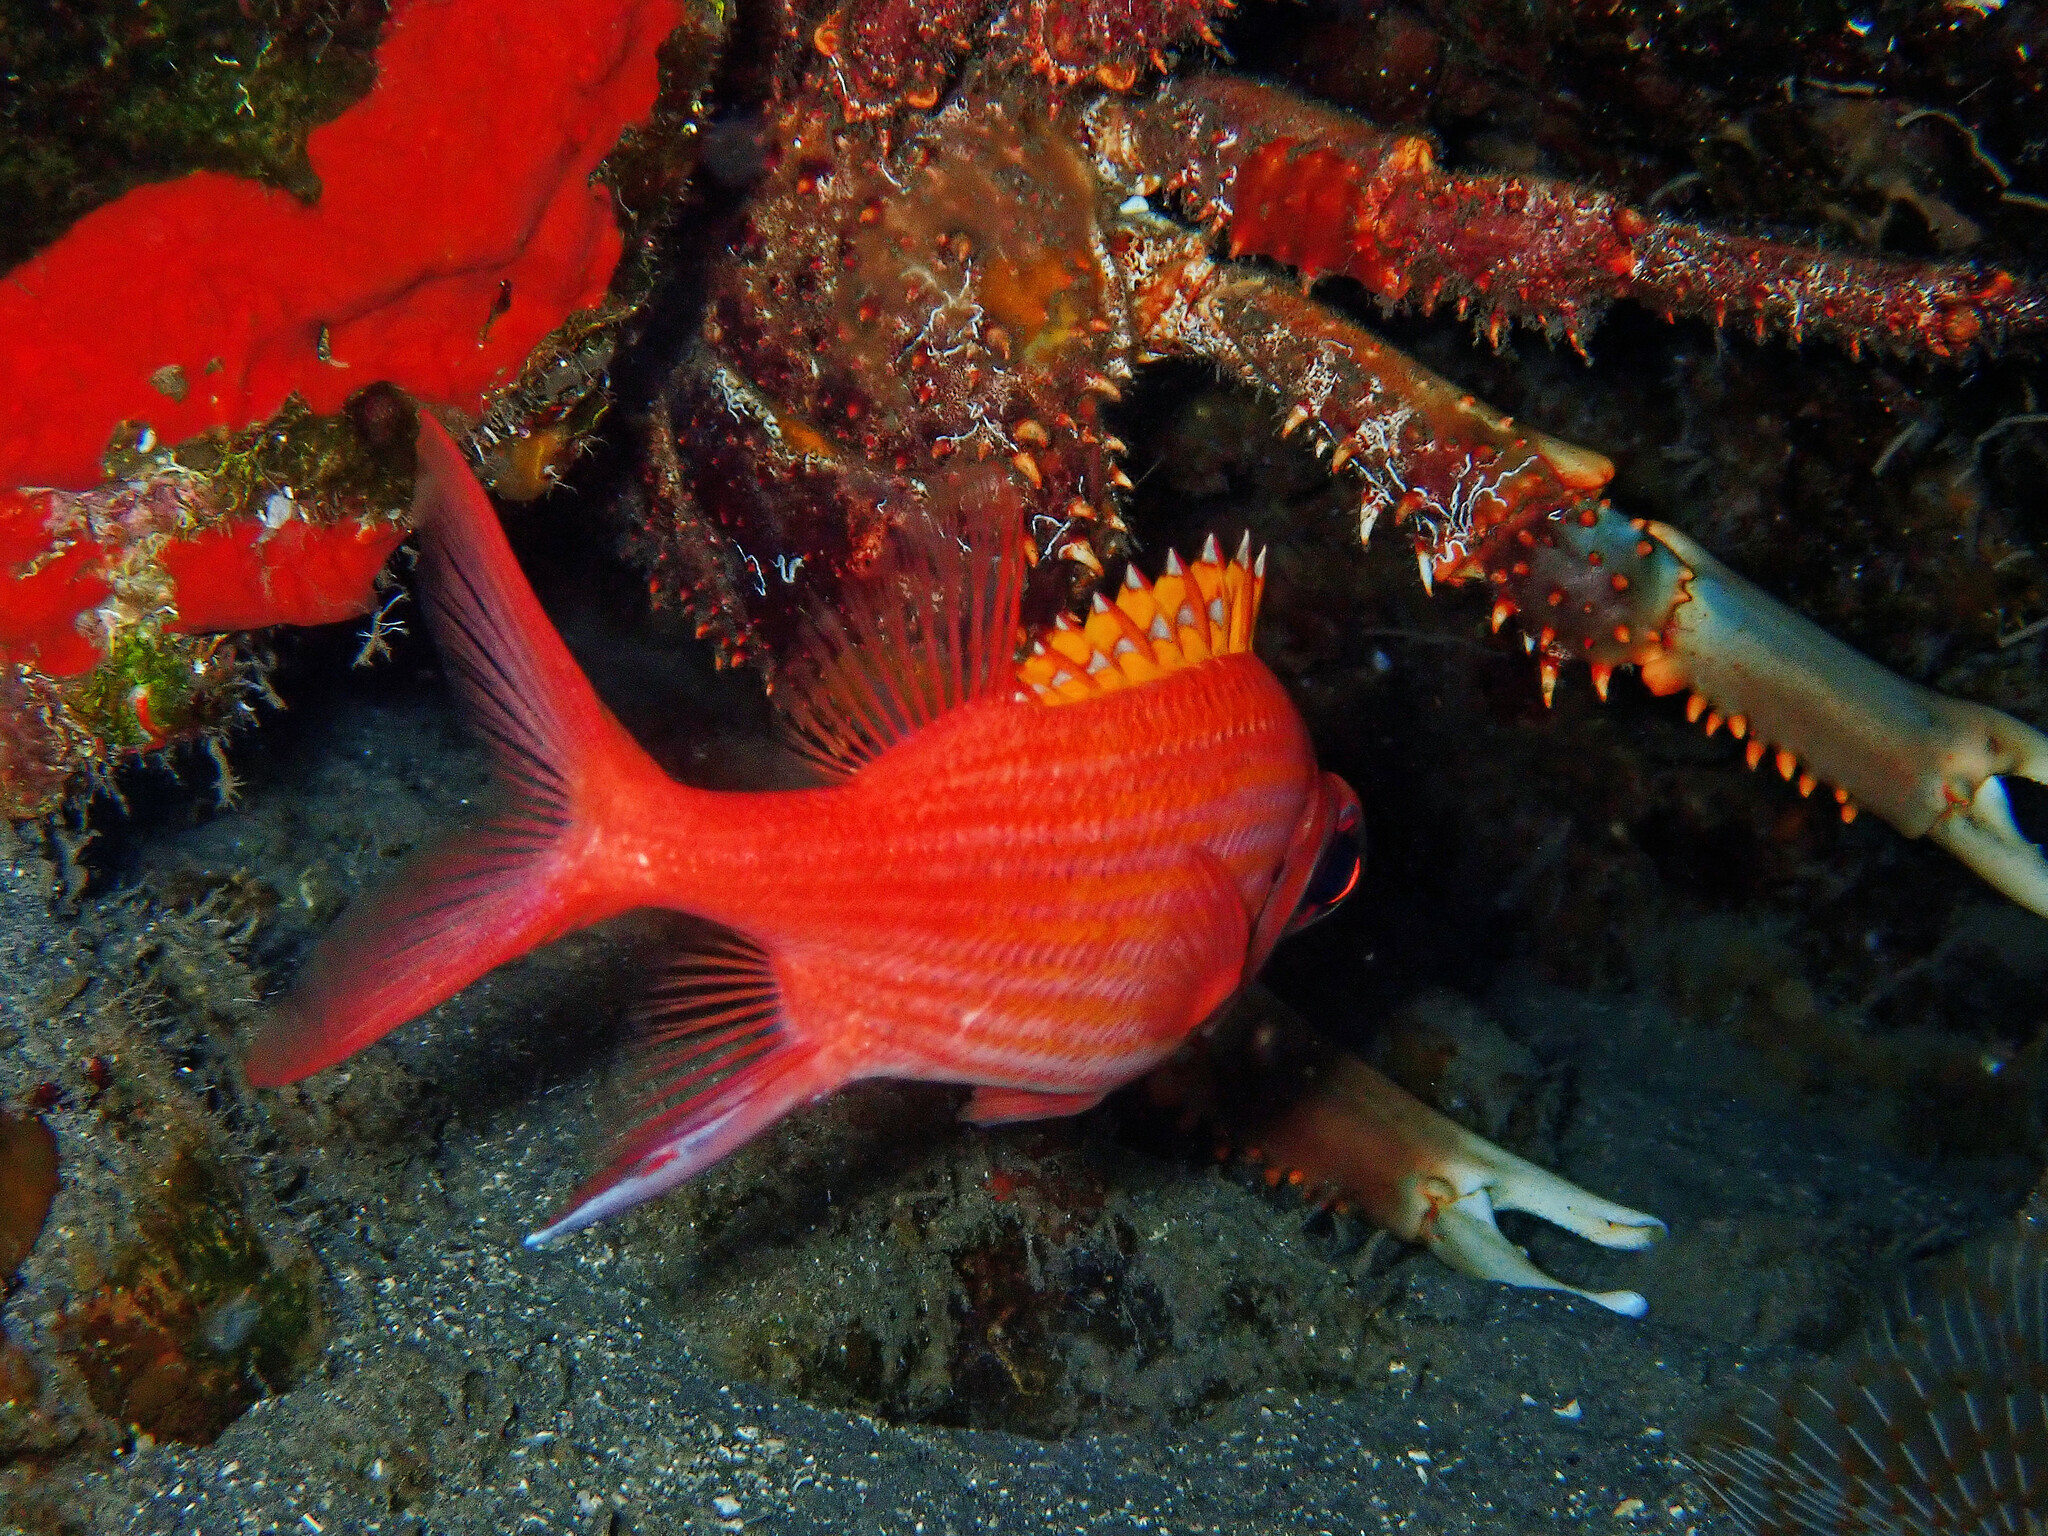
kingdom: Animalia
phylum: Chordata
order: Beryciformes
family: Holocentridae
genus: Neoniphon
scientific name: Neoniphon marianus
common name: Longjaw squirrelfish
